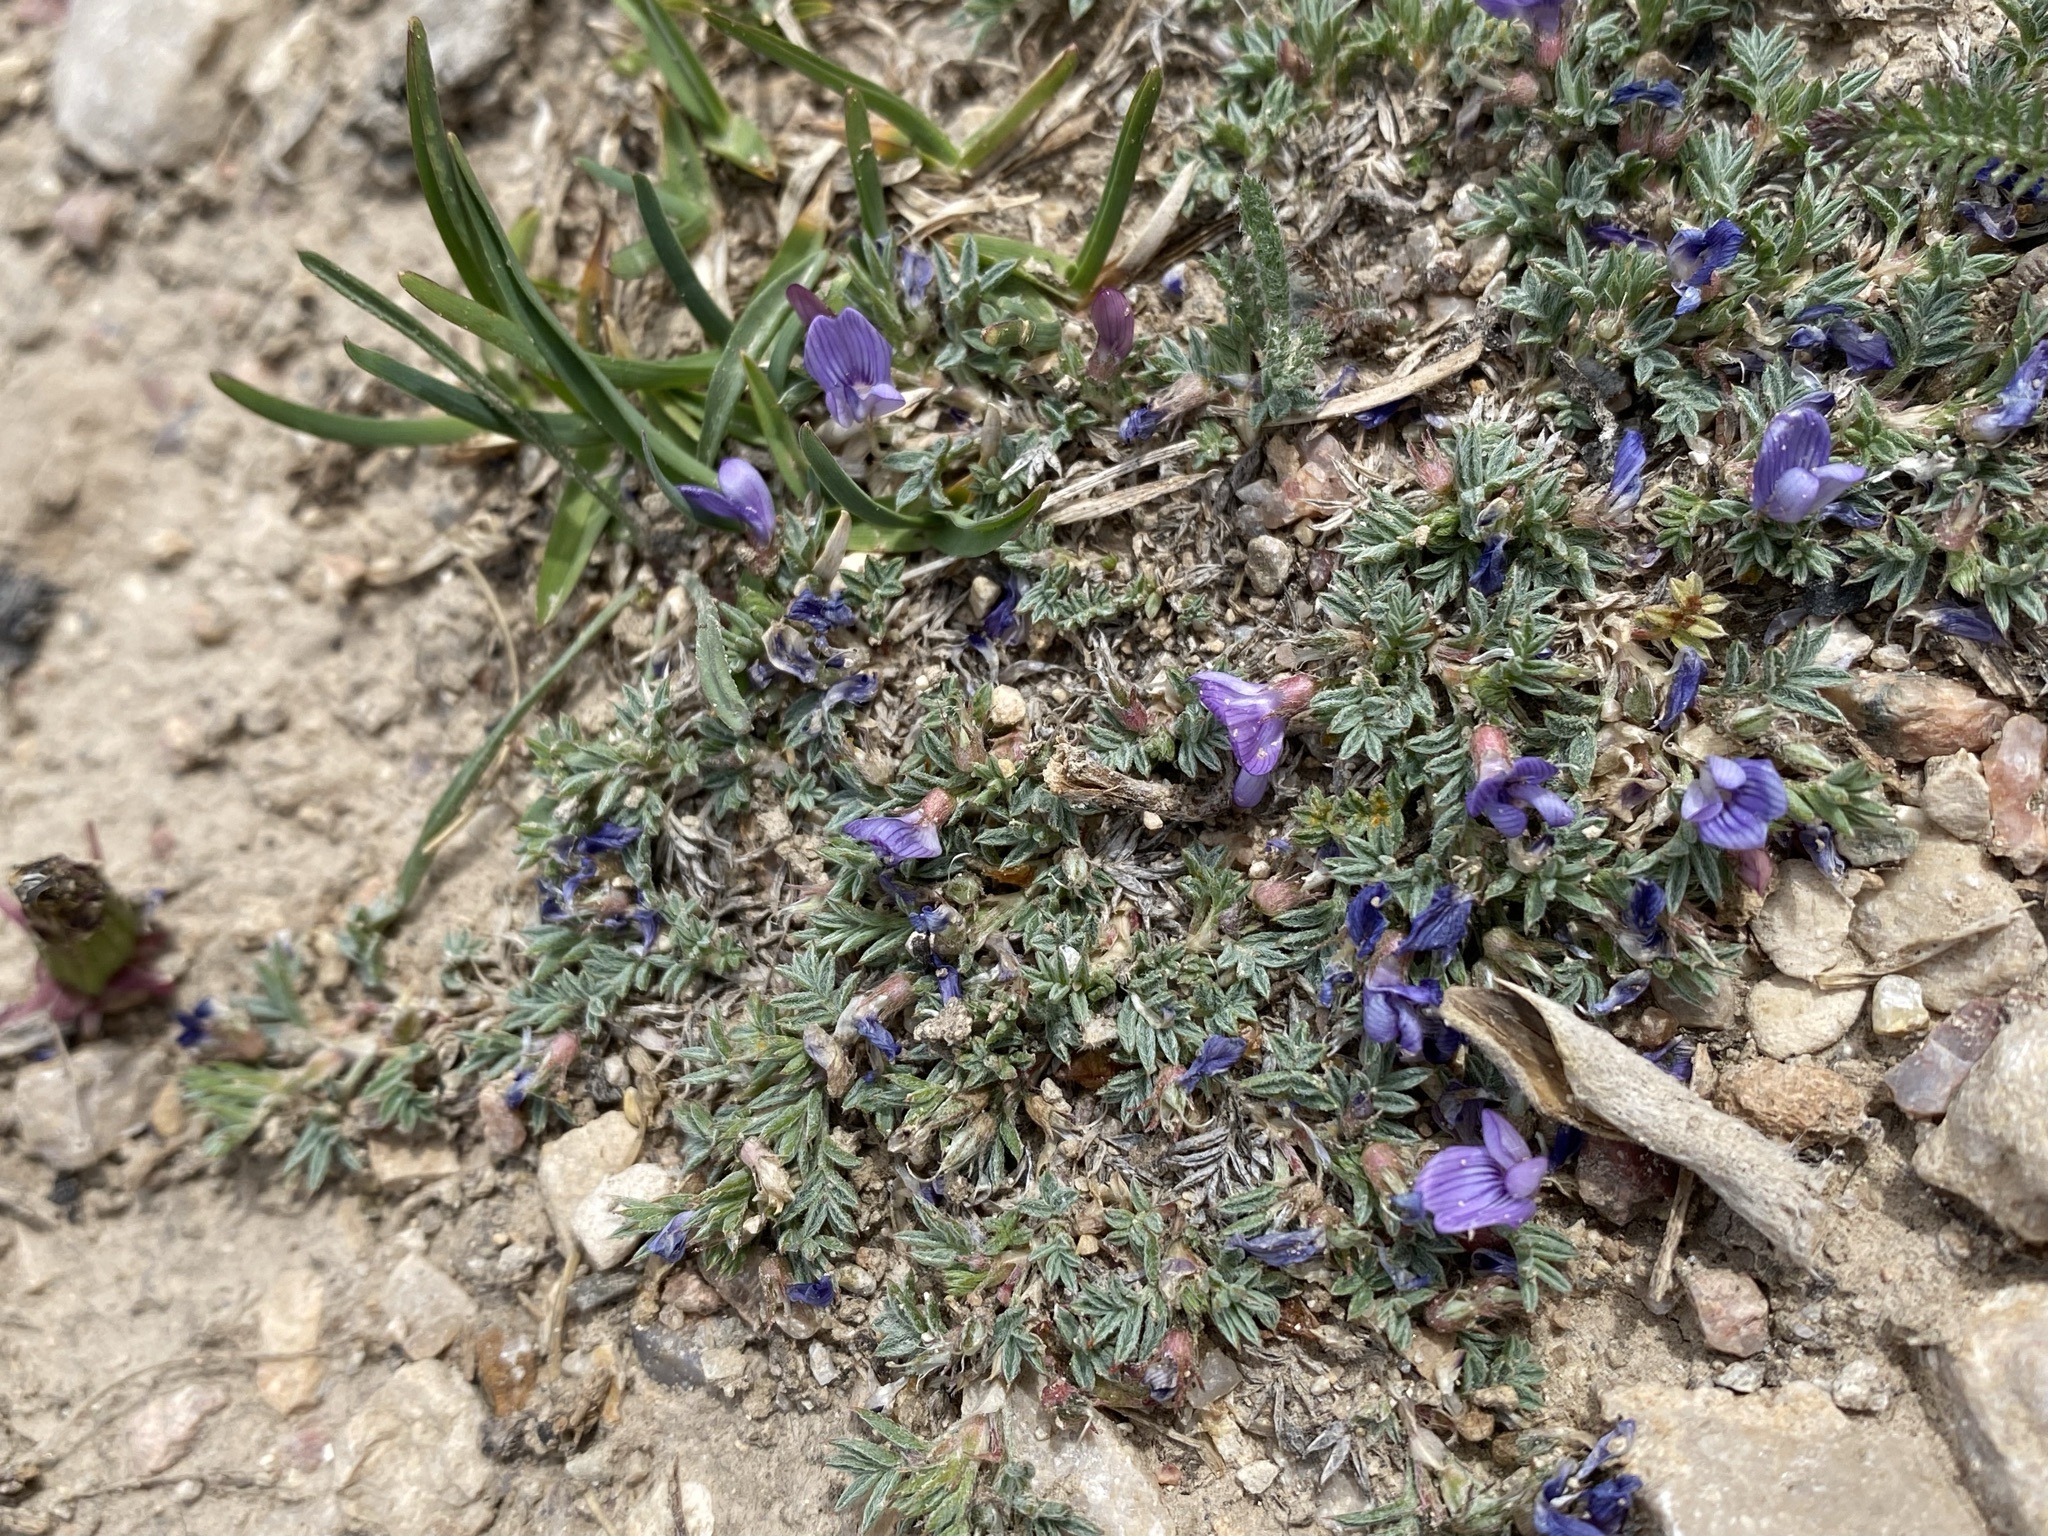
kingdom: Plantae
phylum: Tracheophyta
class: Magnoliopsida
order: Fabales
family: Fabaceae
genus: Astragalus
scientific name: Astragalus kentrophyta
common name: Prickly milk-vetch
